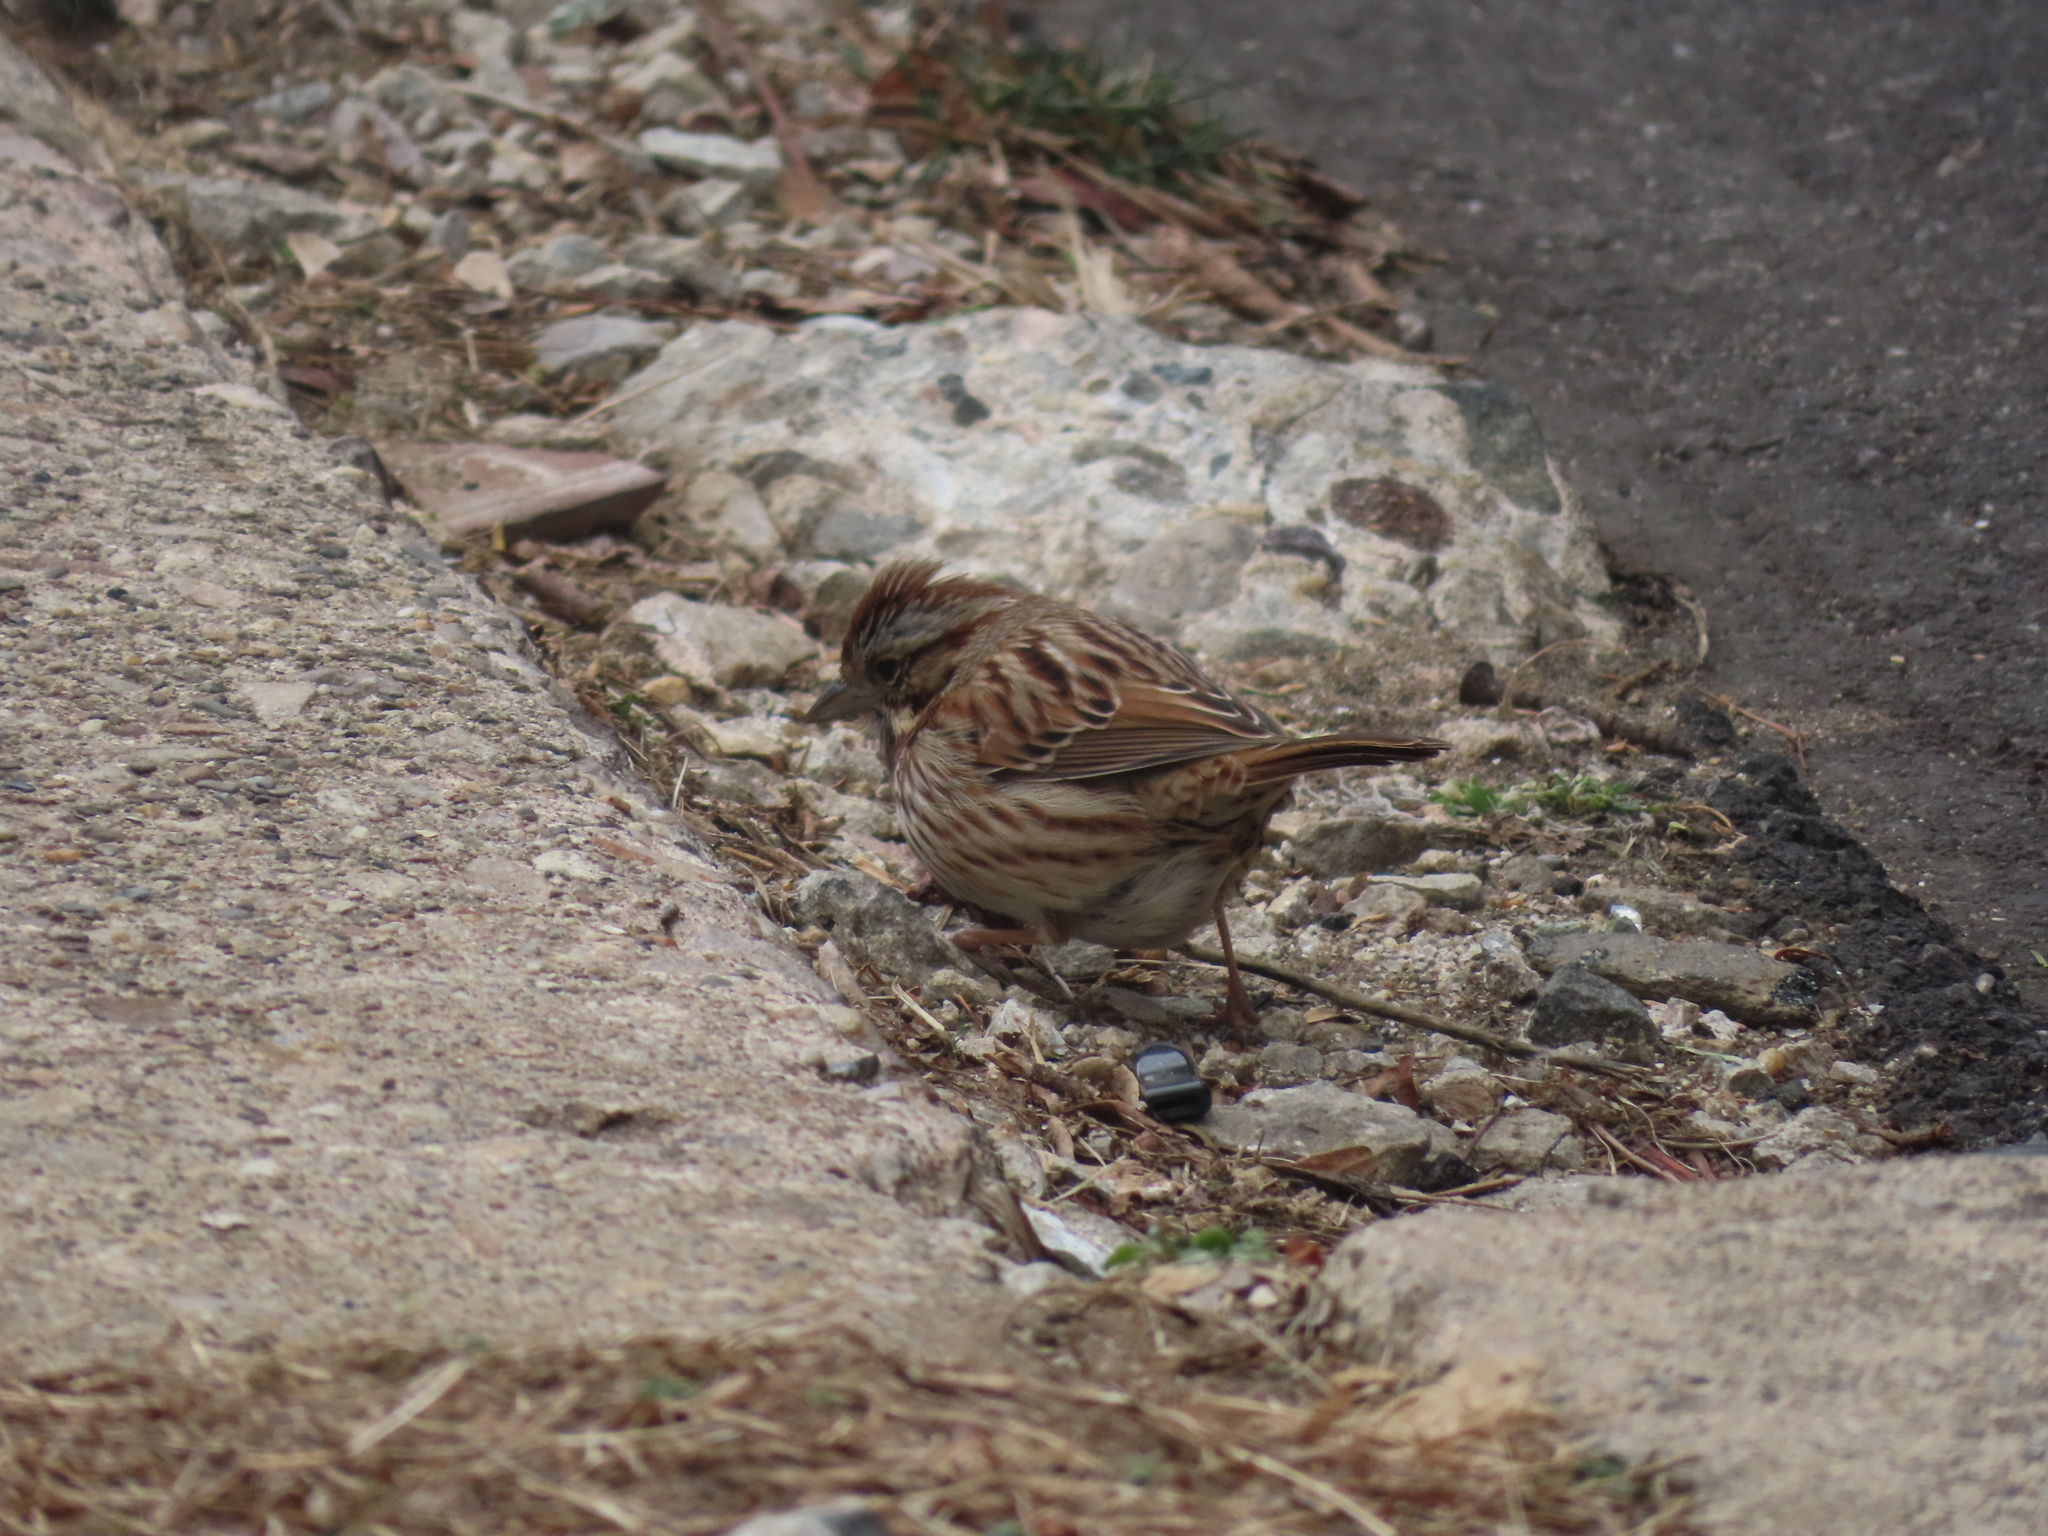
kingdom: Animalia
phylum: Chordata
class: Aves
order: Passeriformes
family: Passerellidae
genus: Melospiza
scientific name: Melospiza melodia
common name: Song sparrow
